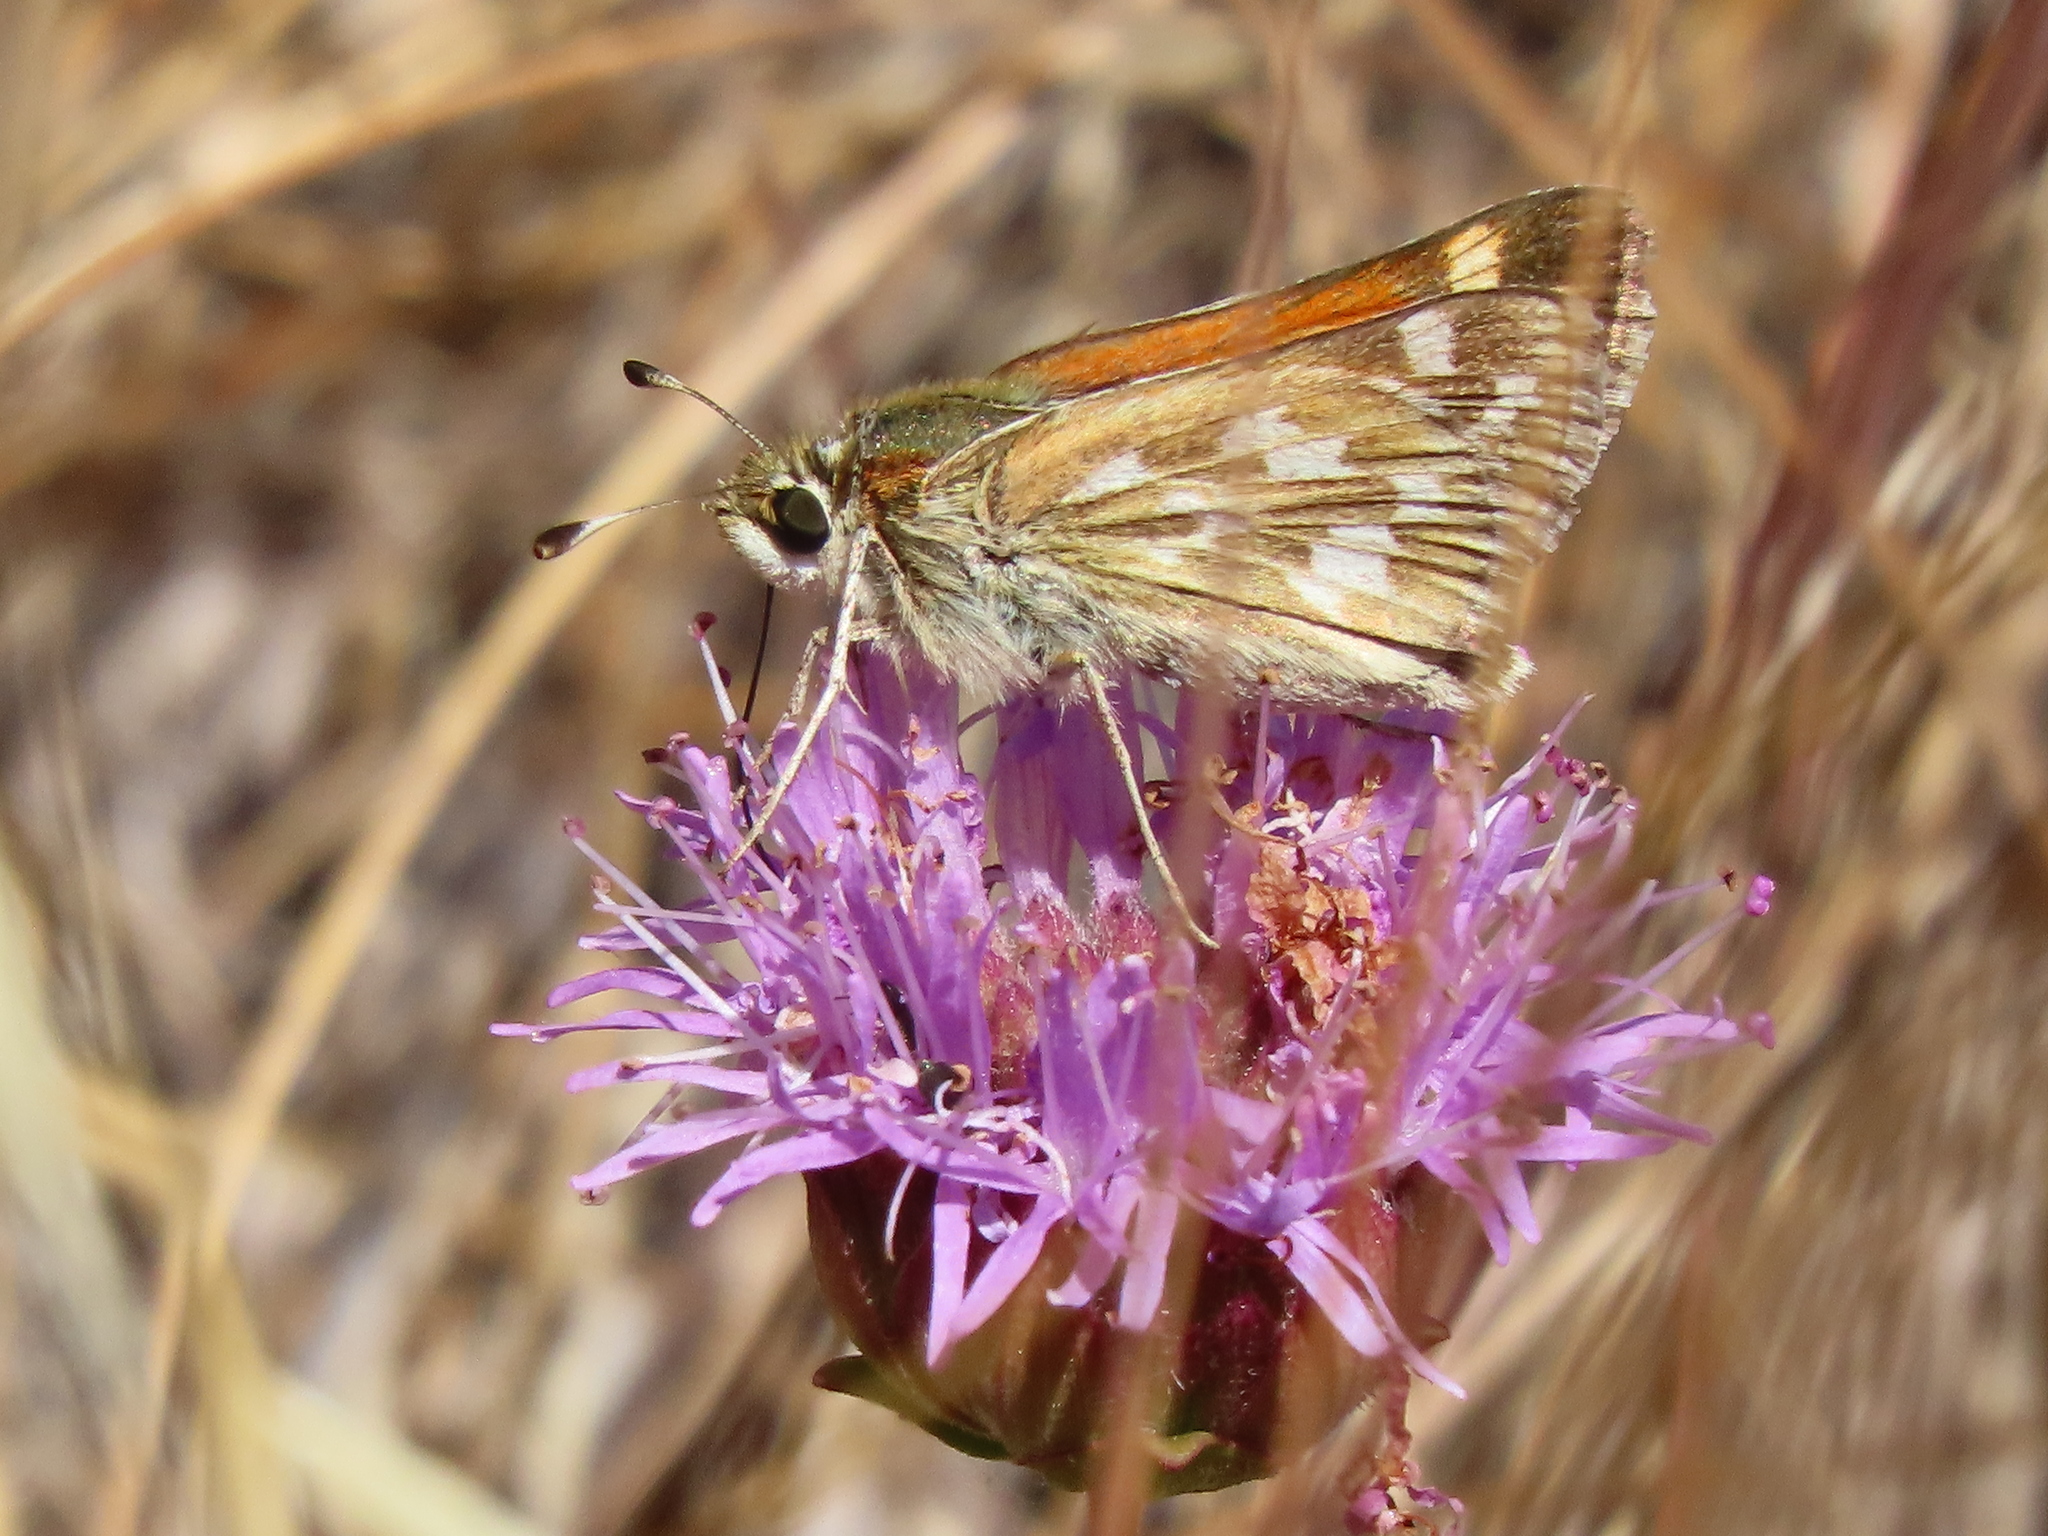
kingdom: Animalia
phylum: Arthropoda
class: Insecta
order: Lepidoptera
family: Hesperiidae
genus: Hesperia
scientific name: Hesperia lindseyi
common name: Lindsey's skipper
